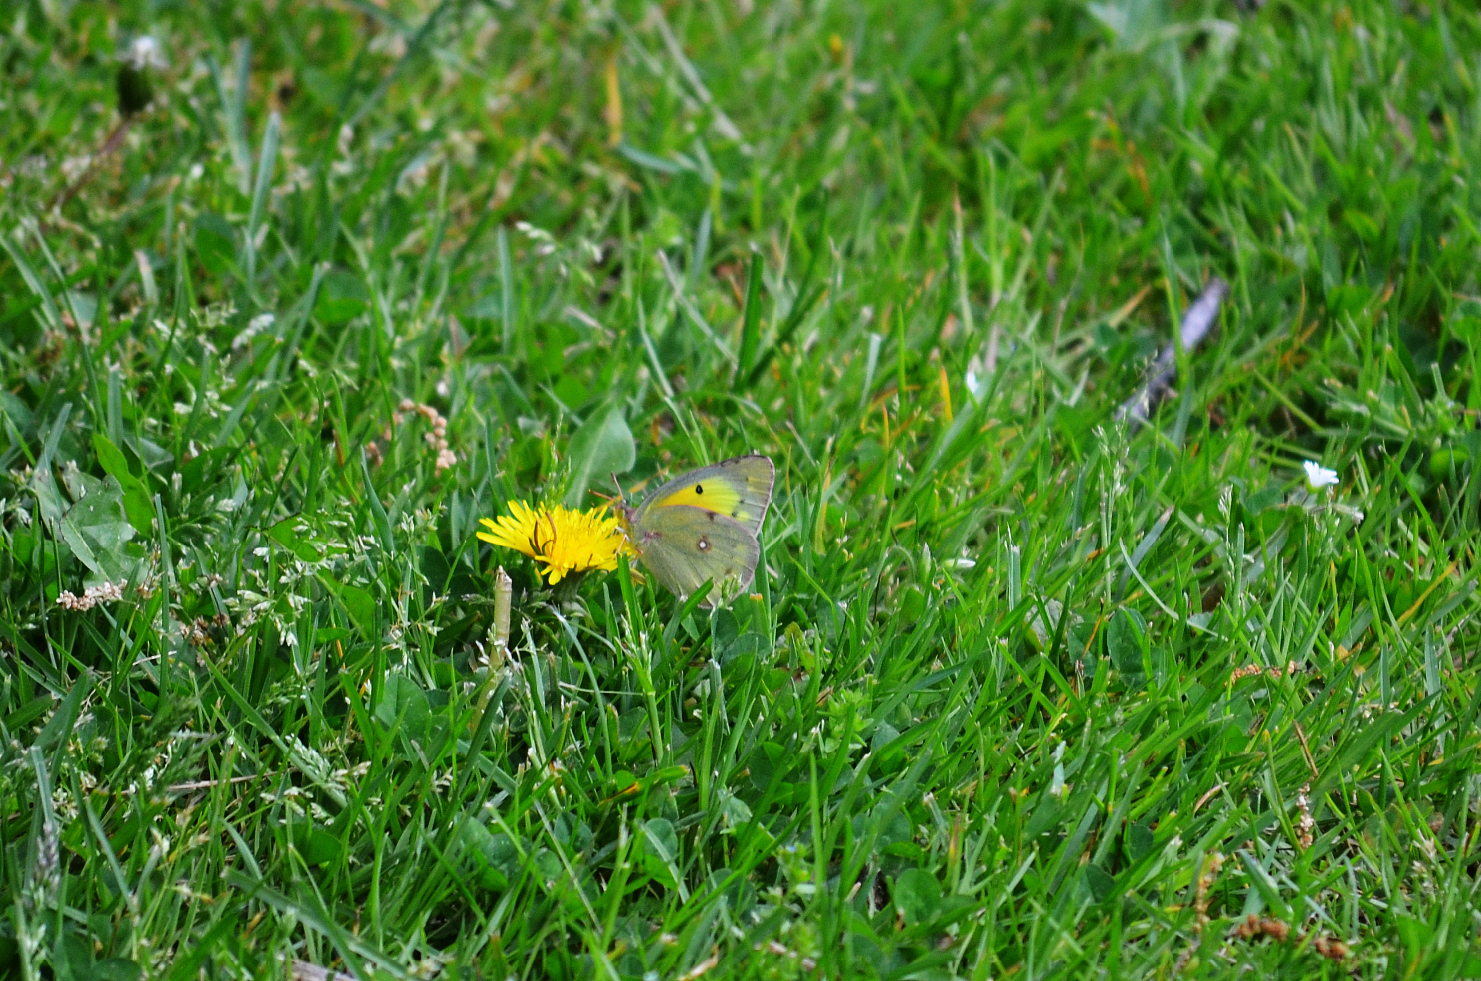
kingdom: Animalia
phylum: Arthropoda
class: Insecta
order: Lepidoptera
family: Pieridae
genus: Colias
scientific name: Colias eurytheme
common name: Alfalfa butterfly
